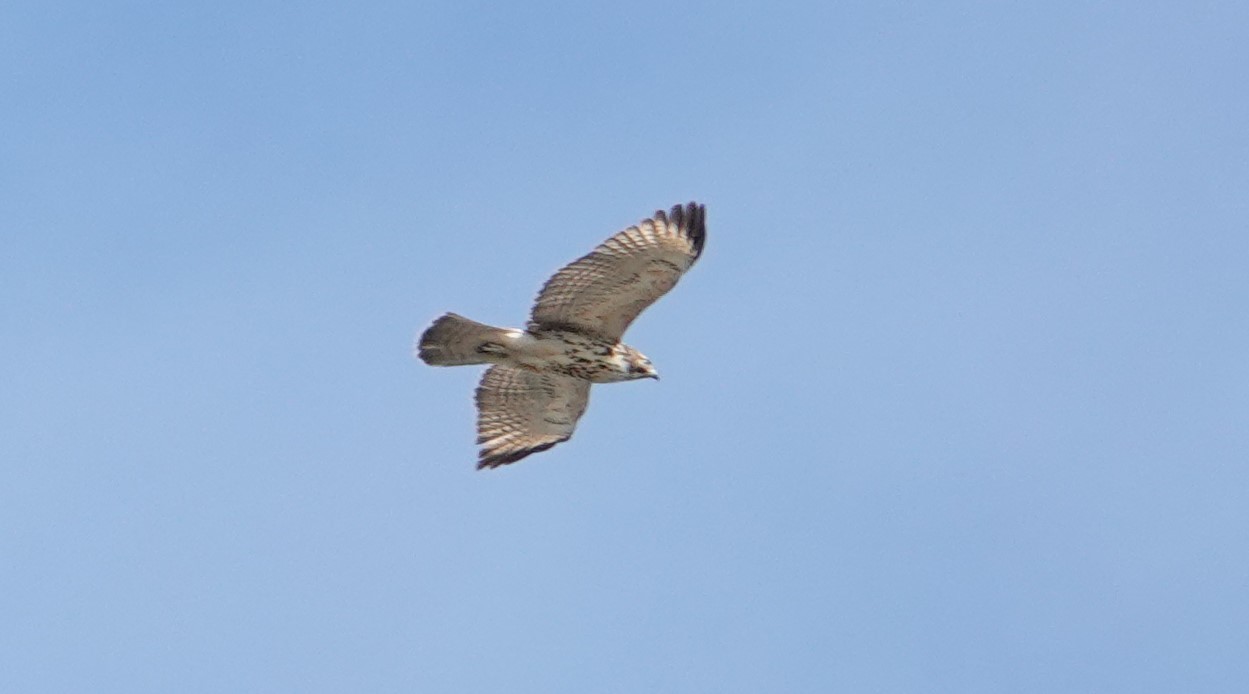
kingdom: Animalia
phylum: Chordata
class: Aves
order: Accipitriformes
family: Accipitridae
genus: Buteo
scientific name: Buteo lineatus
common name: Red-shouldered hawk
